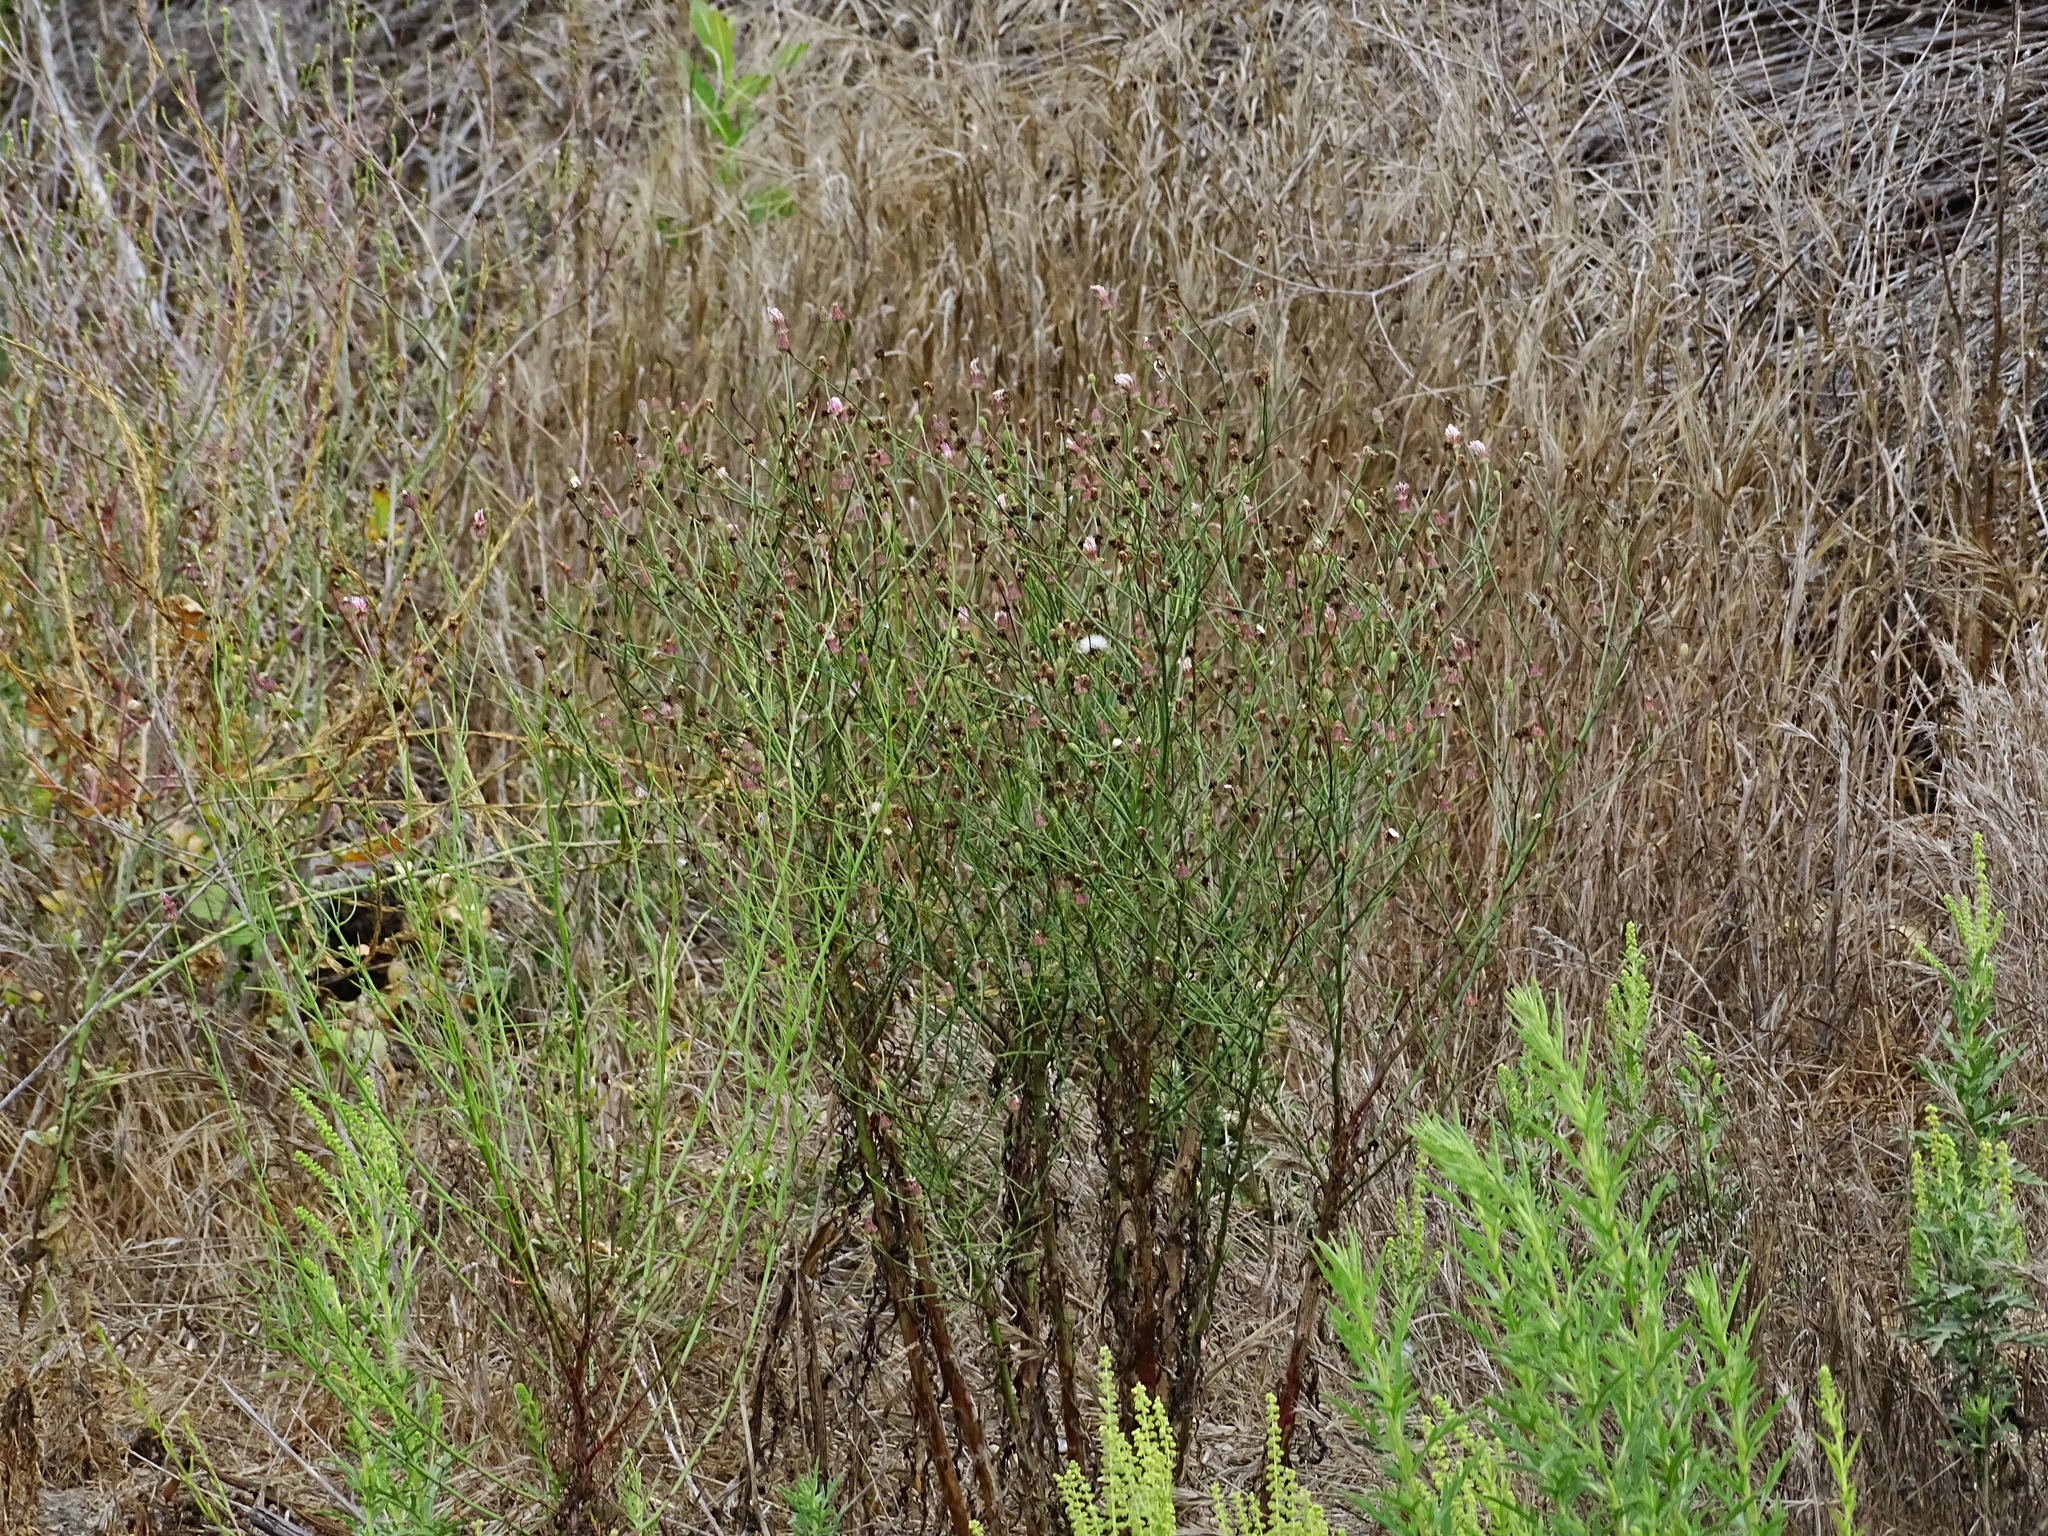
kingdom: Plantae
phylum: Tracheophyta
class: Magnoliopsida
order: Asterales
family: Asteraceae
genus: Malacothrix
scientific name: Malacothrix saxatilis
